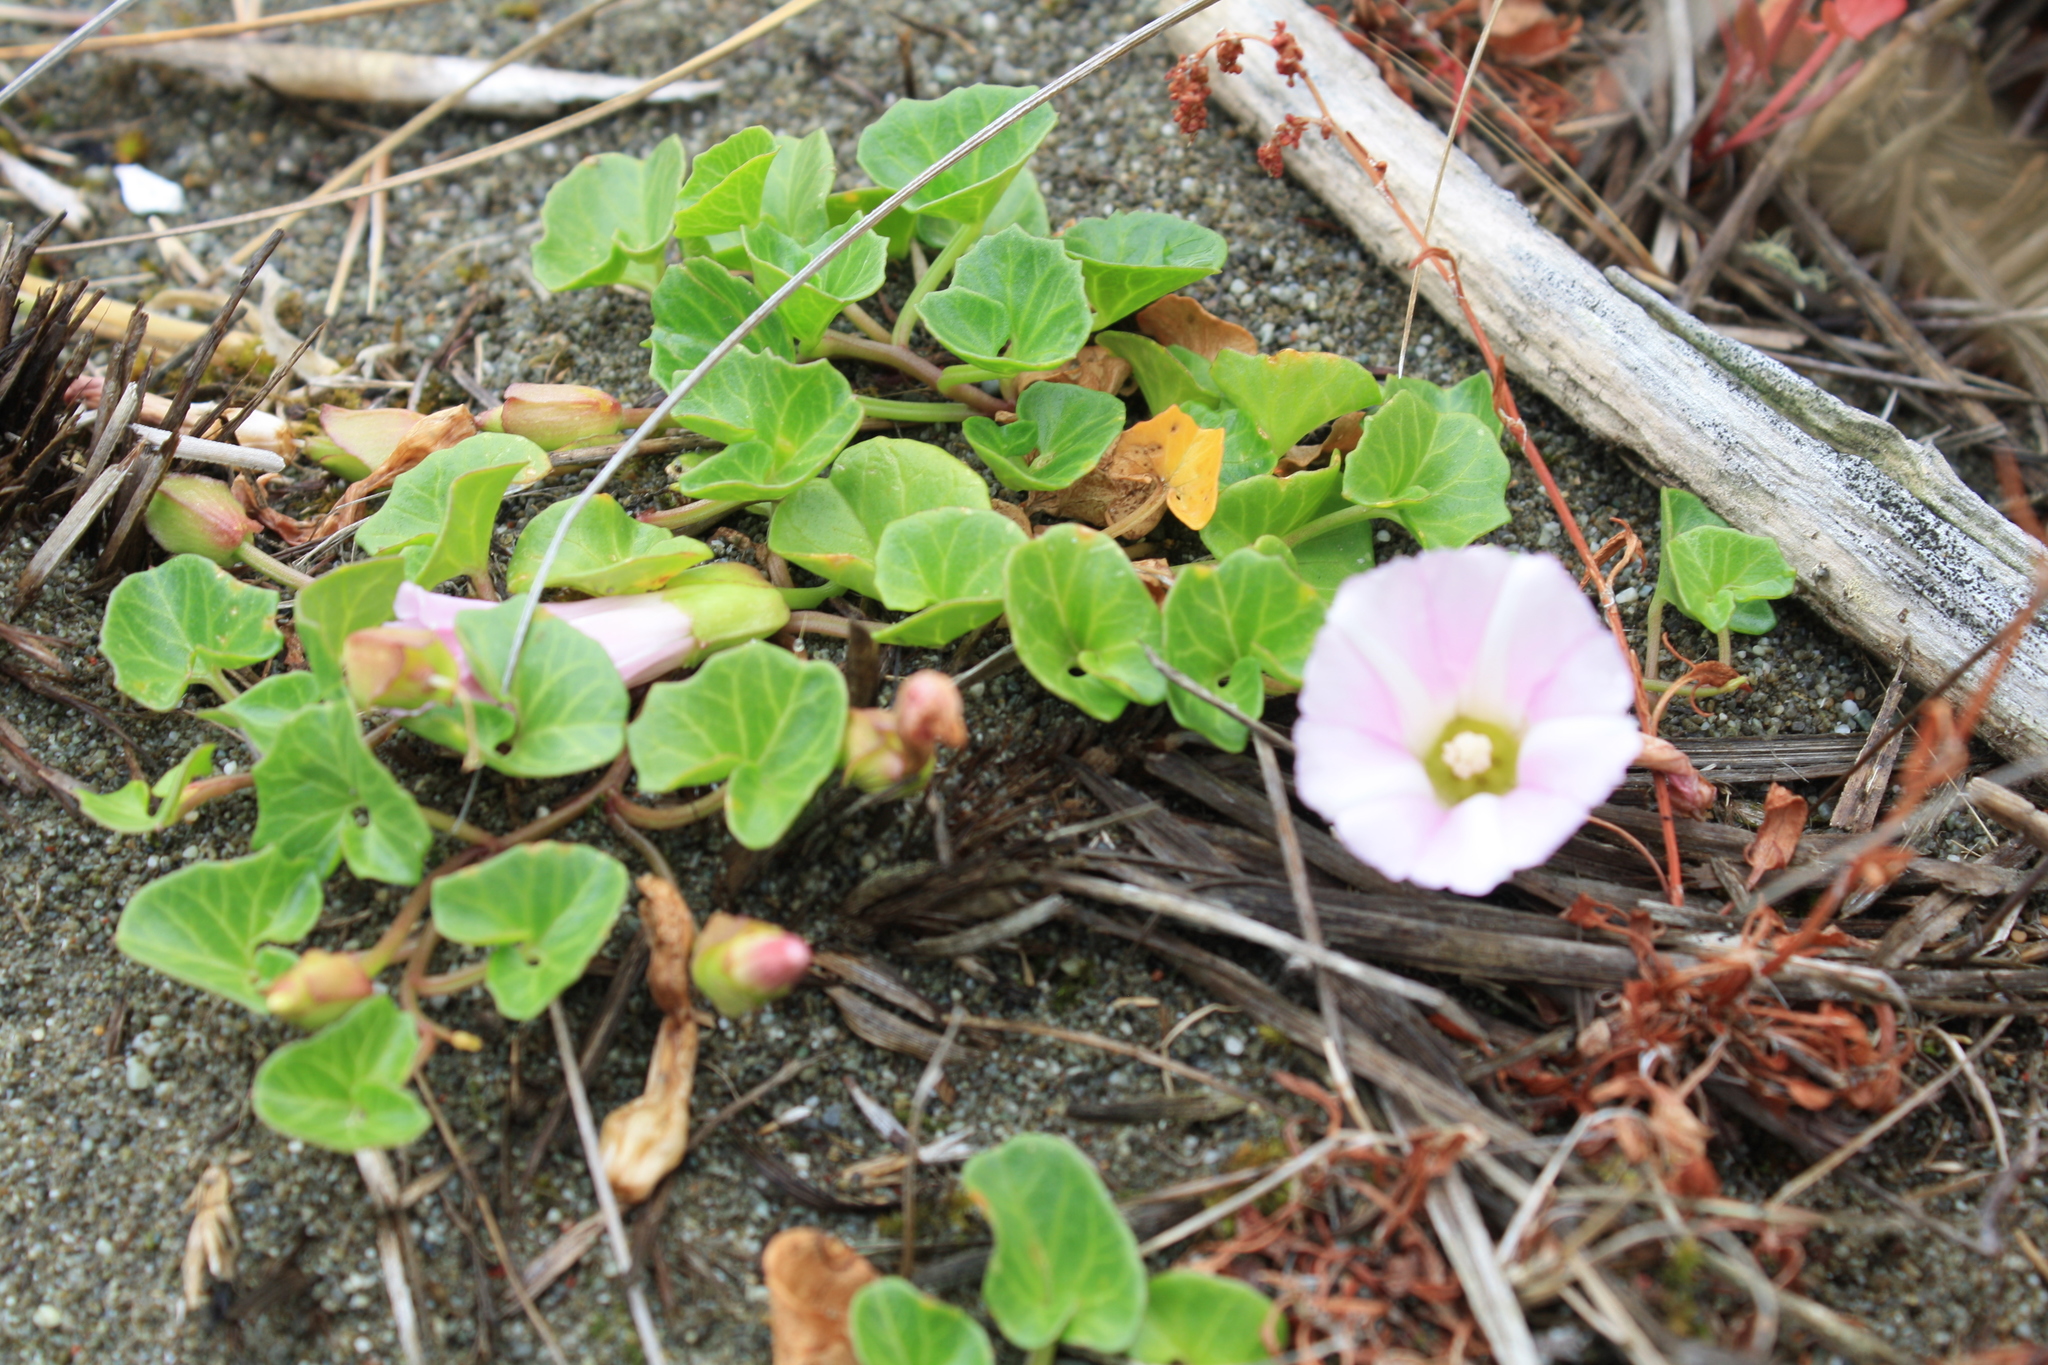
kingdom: Plantae
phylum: Tracheophyta
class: Magnoliopsida
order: Solanales
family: Convolvulaceae
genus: Calystegia
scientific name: Calystegia soldanella
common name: Sea bindweed
